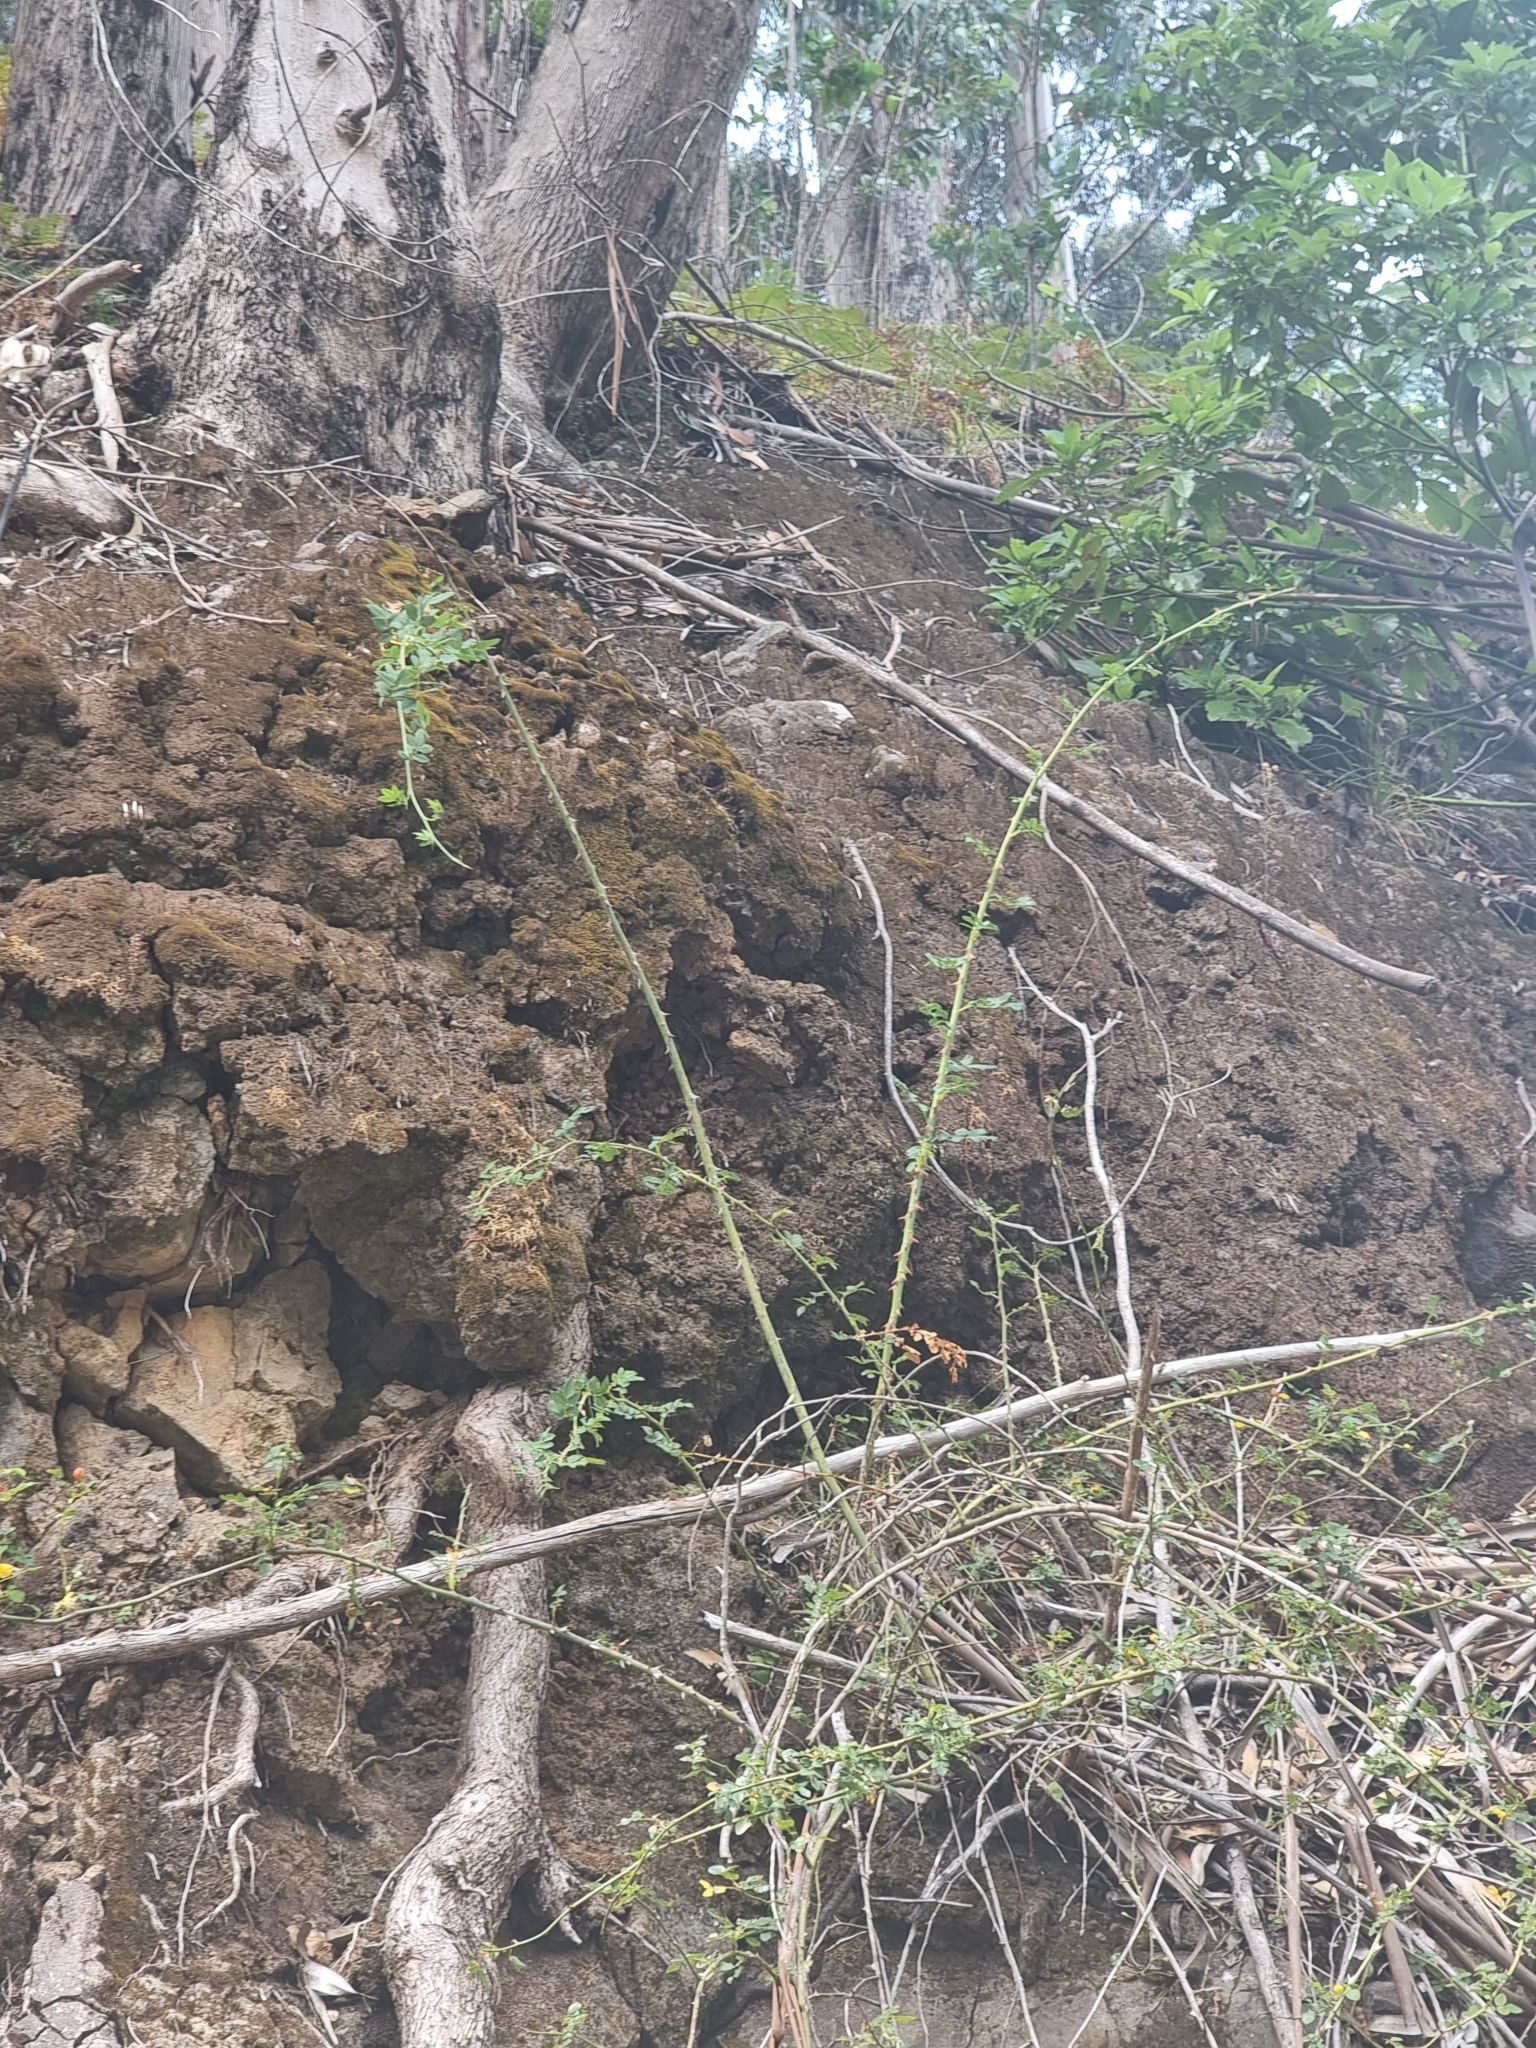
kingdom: Plantae
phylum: Tracheophyta
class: Magnoliopsida
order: Rosales
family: Rosaceae
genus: Rosa
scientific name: Rosa canina
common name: Dog rose
